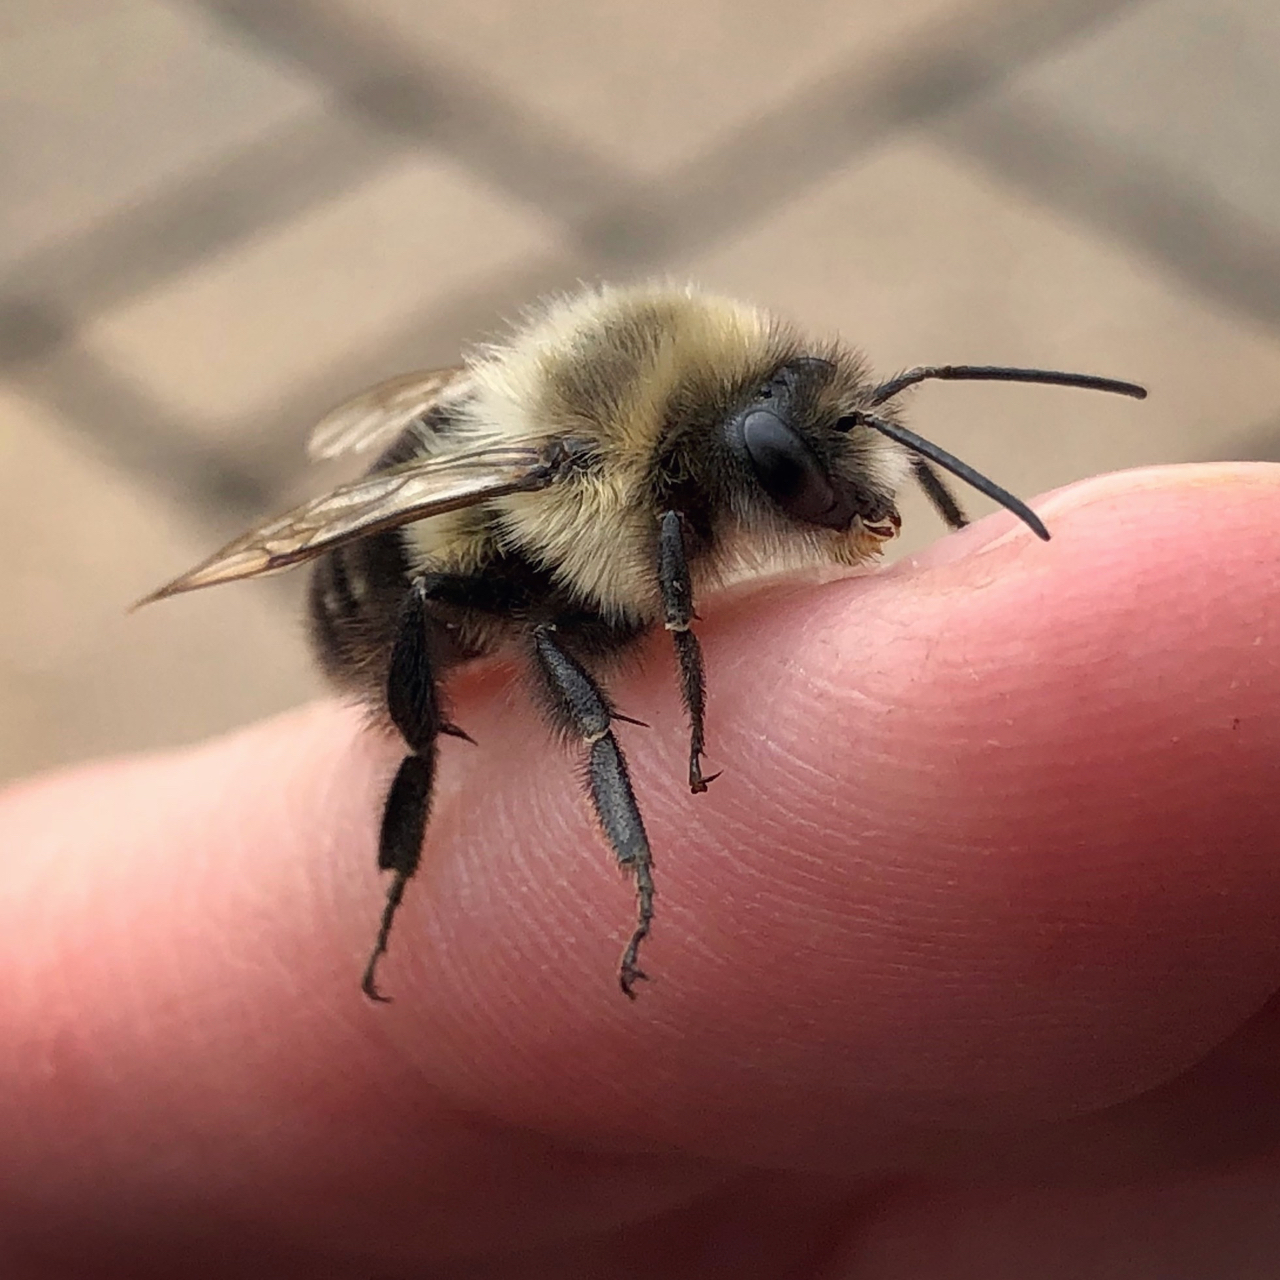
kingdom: Animalia
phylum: Arthropoda
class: Insecta
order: Hymenoptera
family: Apidae
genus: Bombus
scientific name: Bombus impatiens
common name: Common eastern bumble bee
